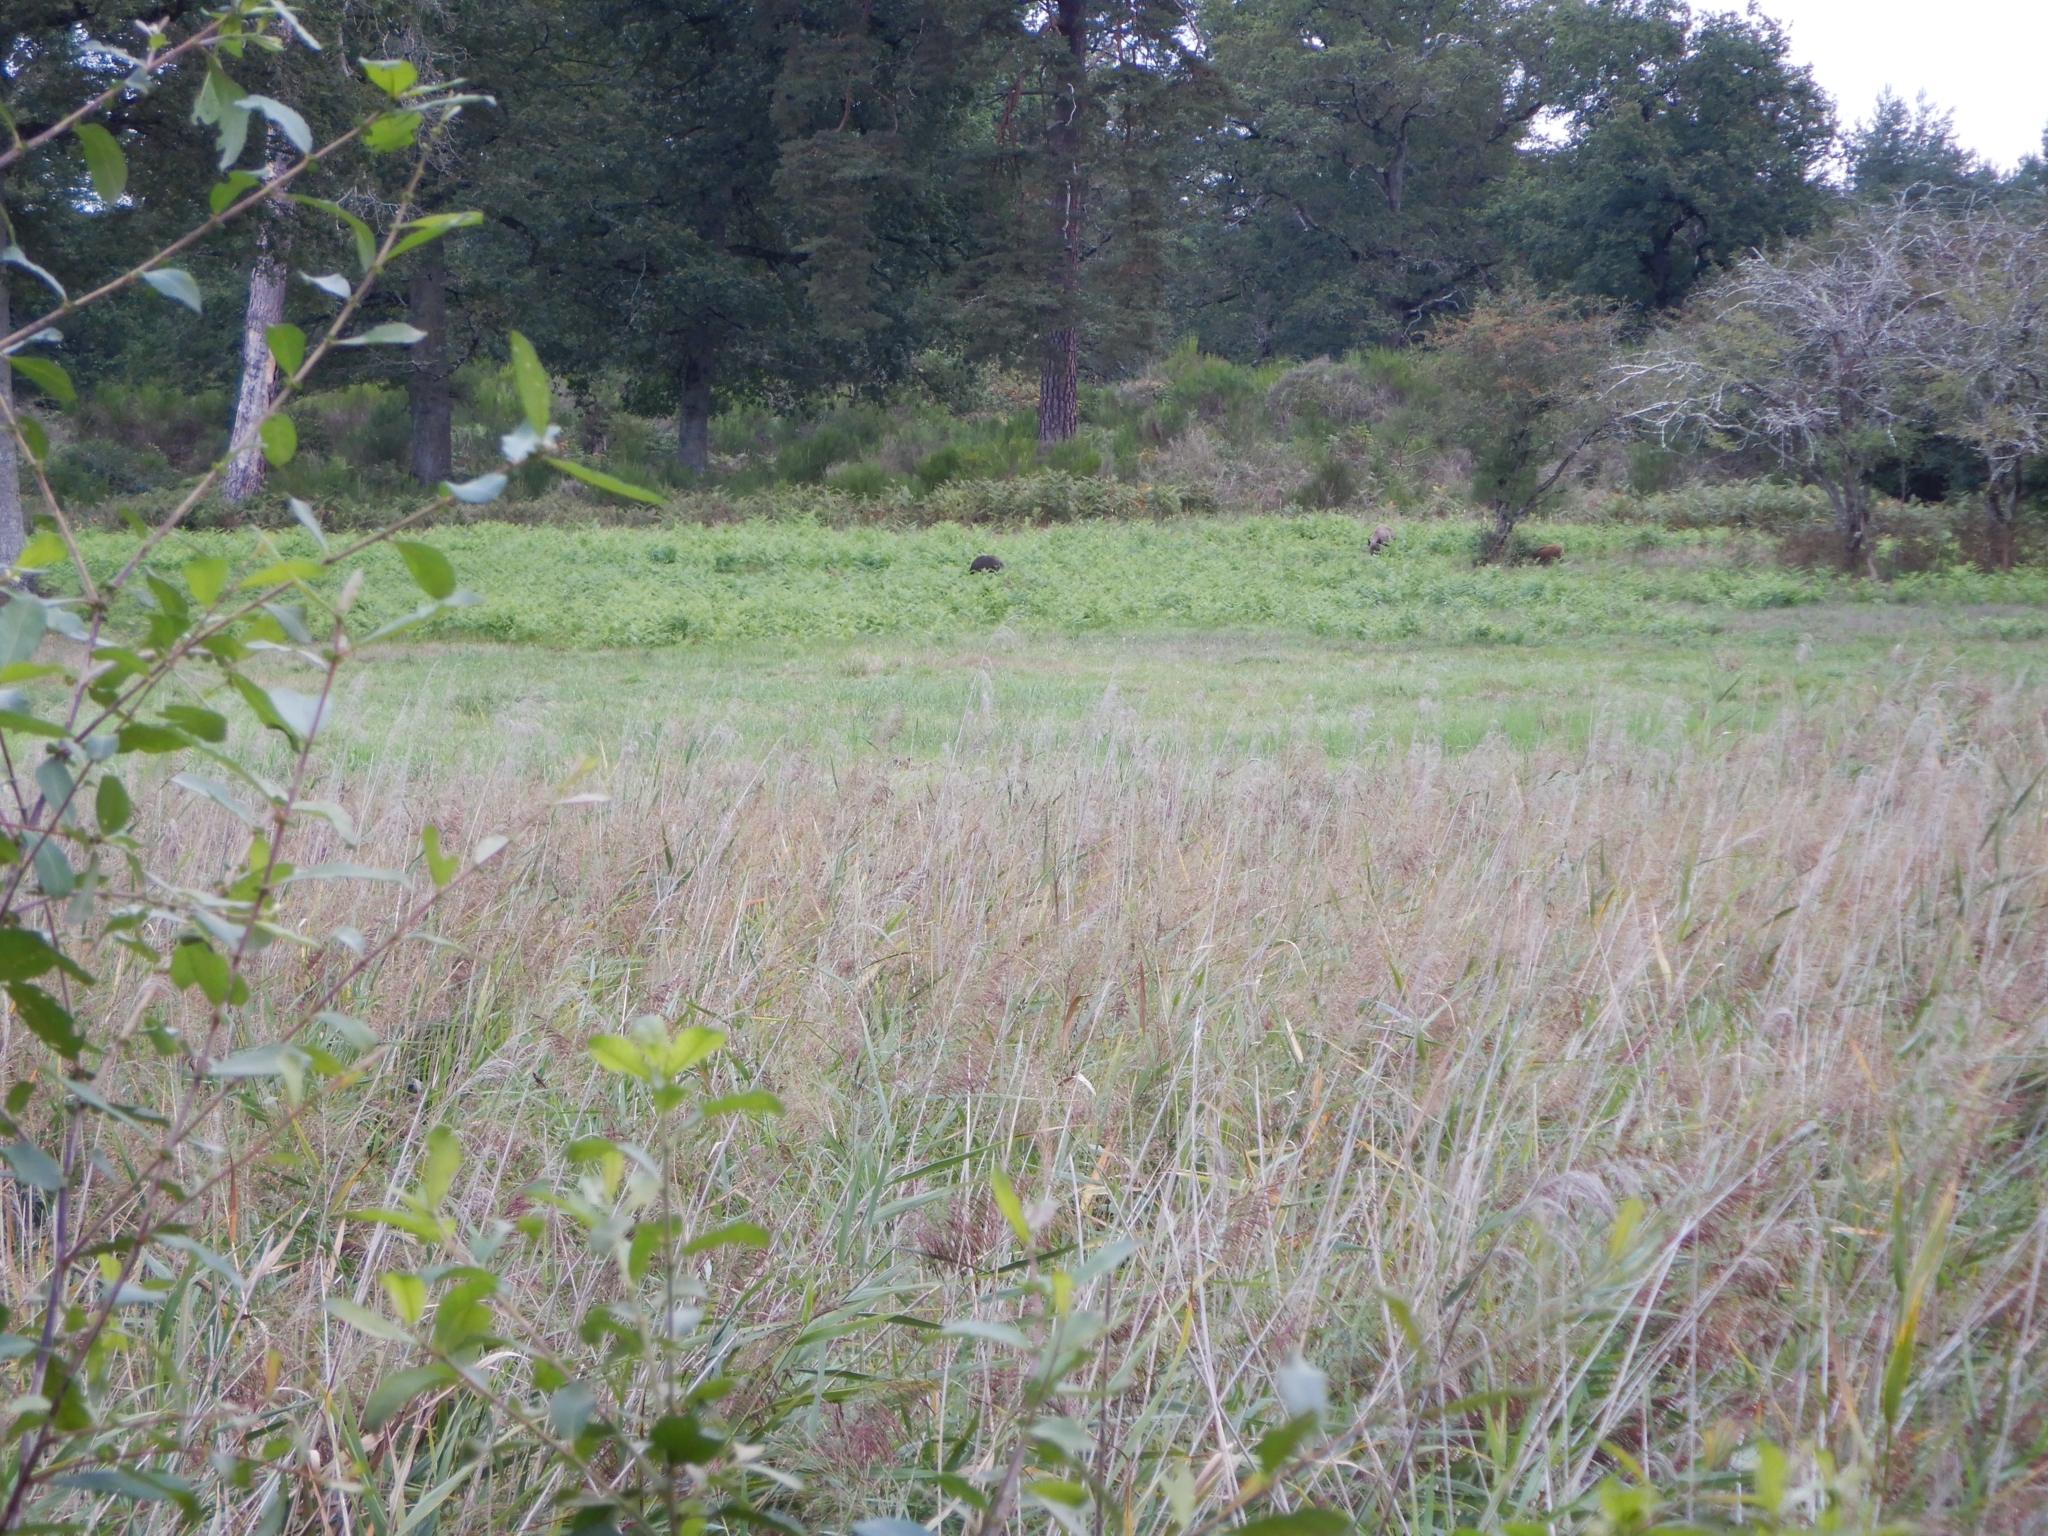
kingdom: Animalia
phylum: Chordata
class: Mammalia
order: Artiodactyla
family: Suidae
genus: Sus
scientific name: Sus scrofa
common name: Wild boar
